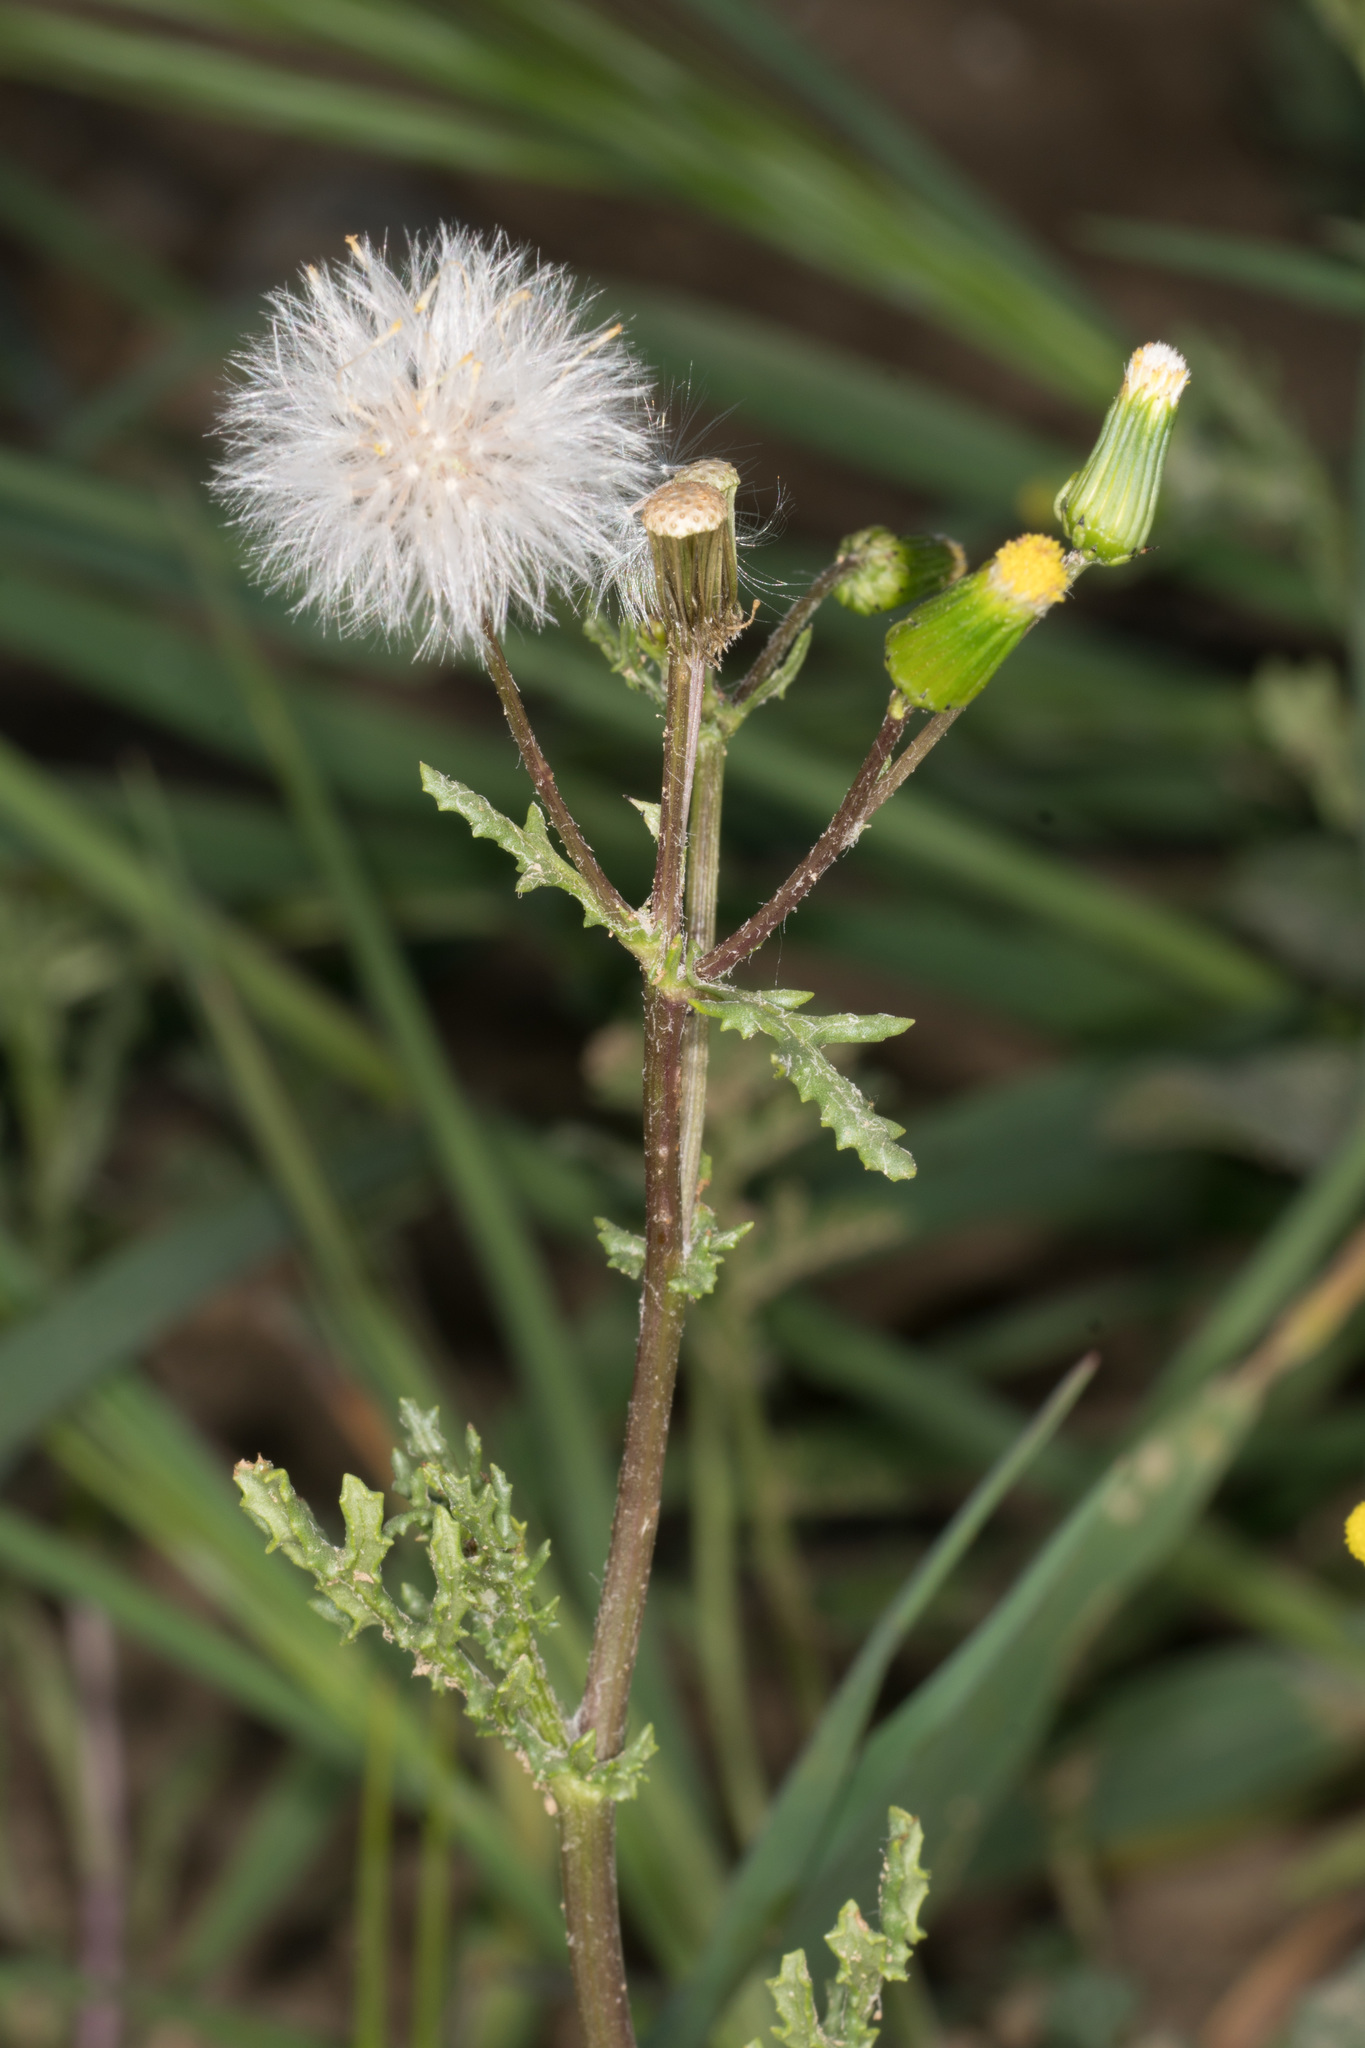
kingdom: Plantae
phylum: Tracheophyta
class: Magnoliopsida
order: Asterales
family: Asteraceae
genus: Senecio
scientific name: Senecio vulgaris
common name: Old-man-in-the-spring
